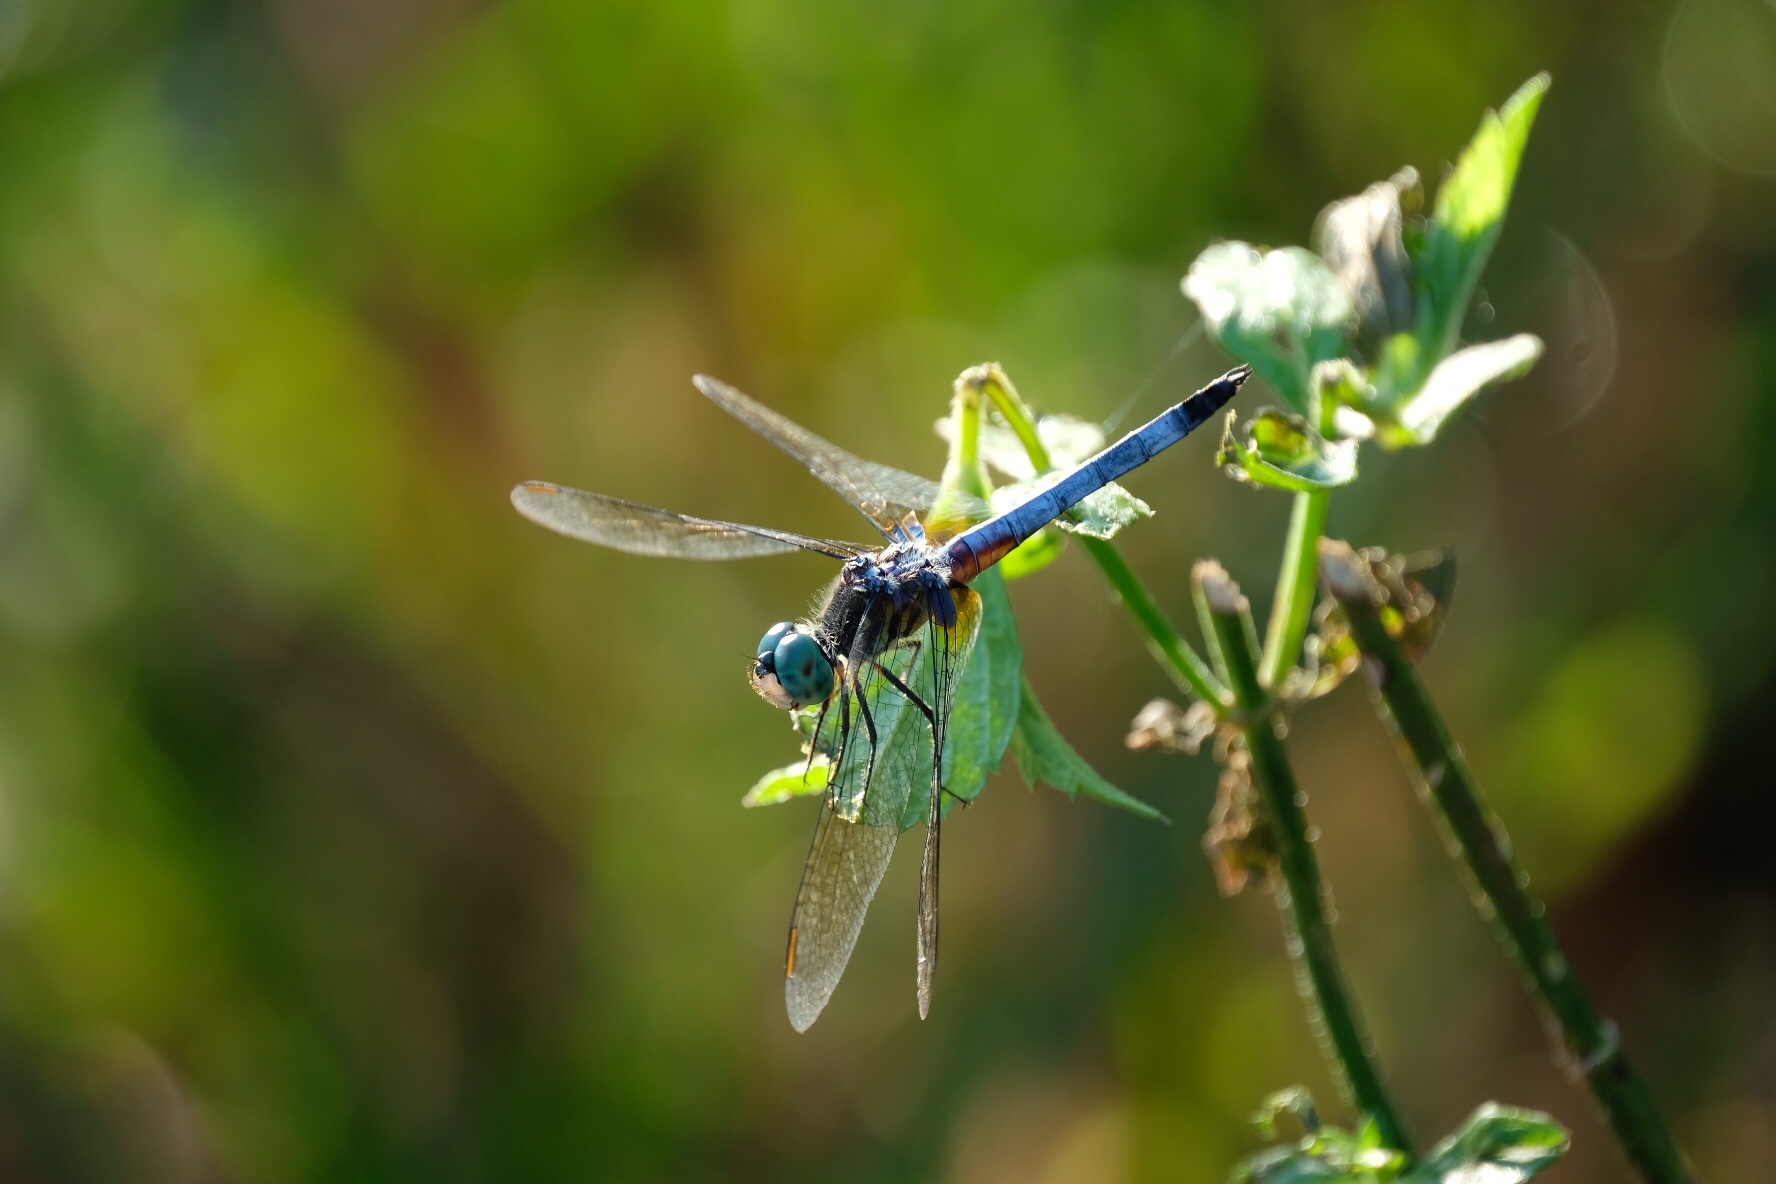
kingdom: Animalia
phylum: Arthropoda
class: Insecta
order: Odonata
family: Libellulidae
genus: Pachydiplax
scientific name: Pachydiplax longipennis
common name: Blue dasher
